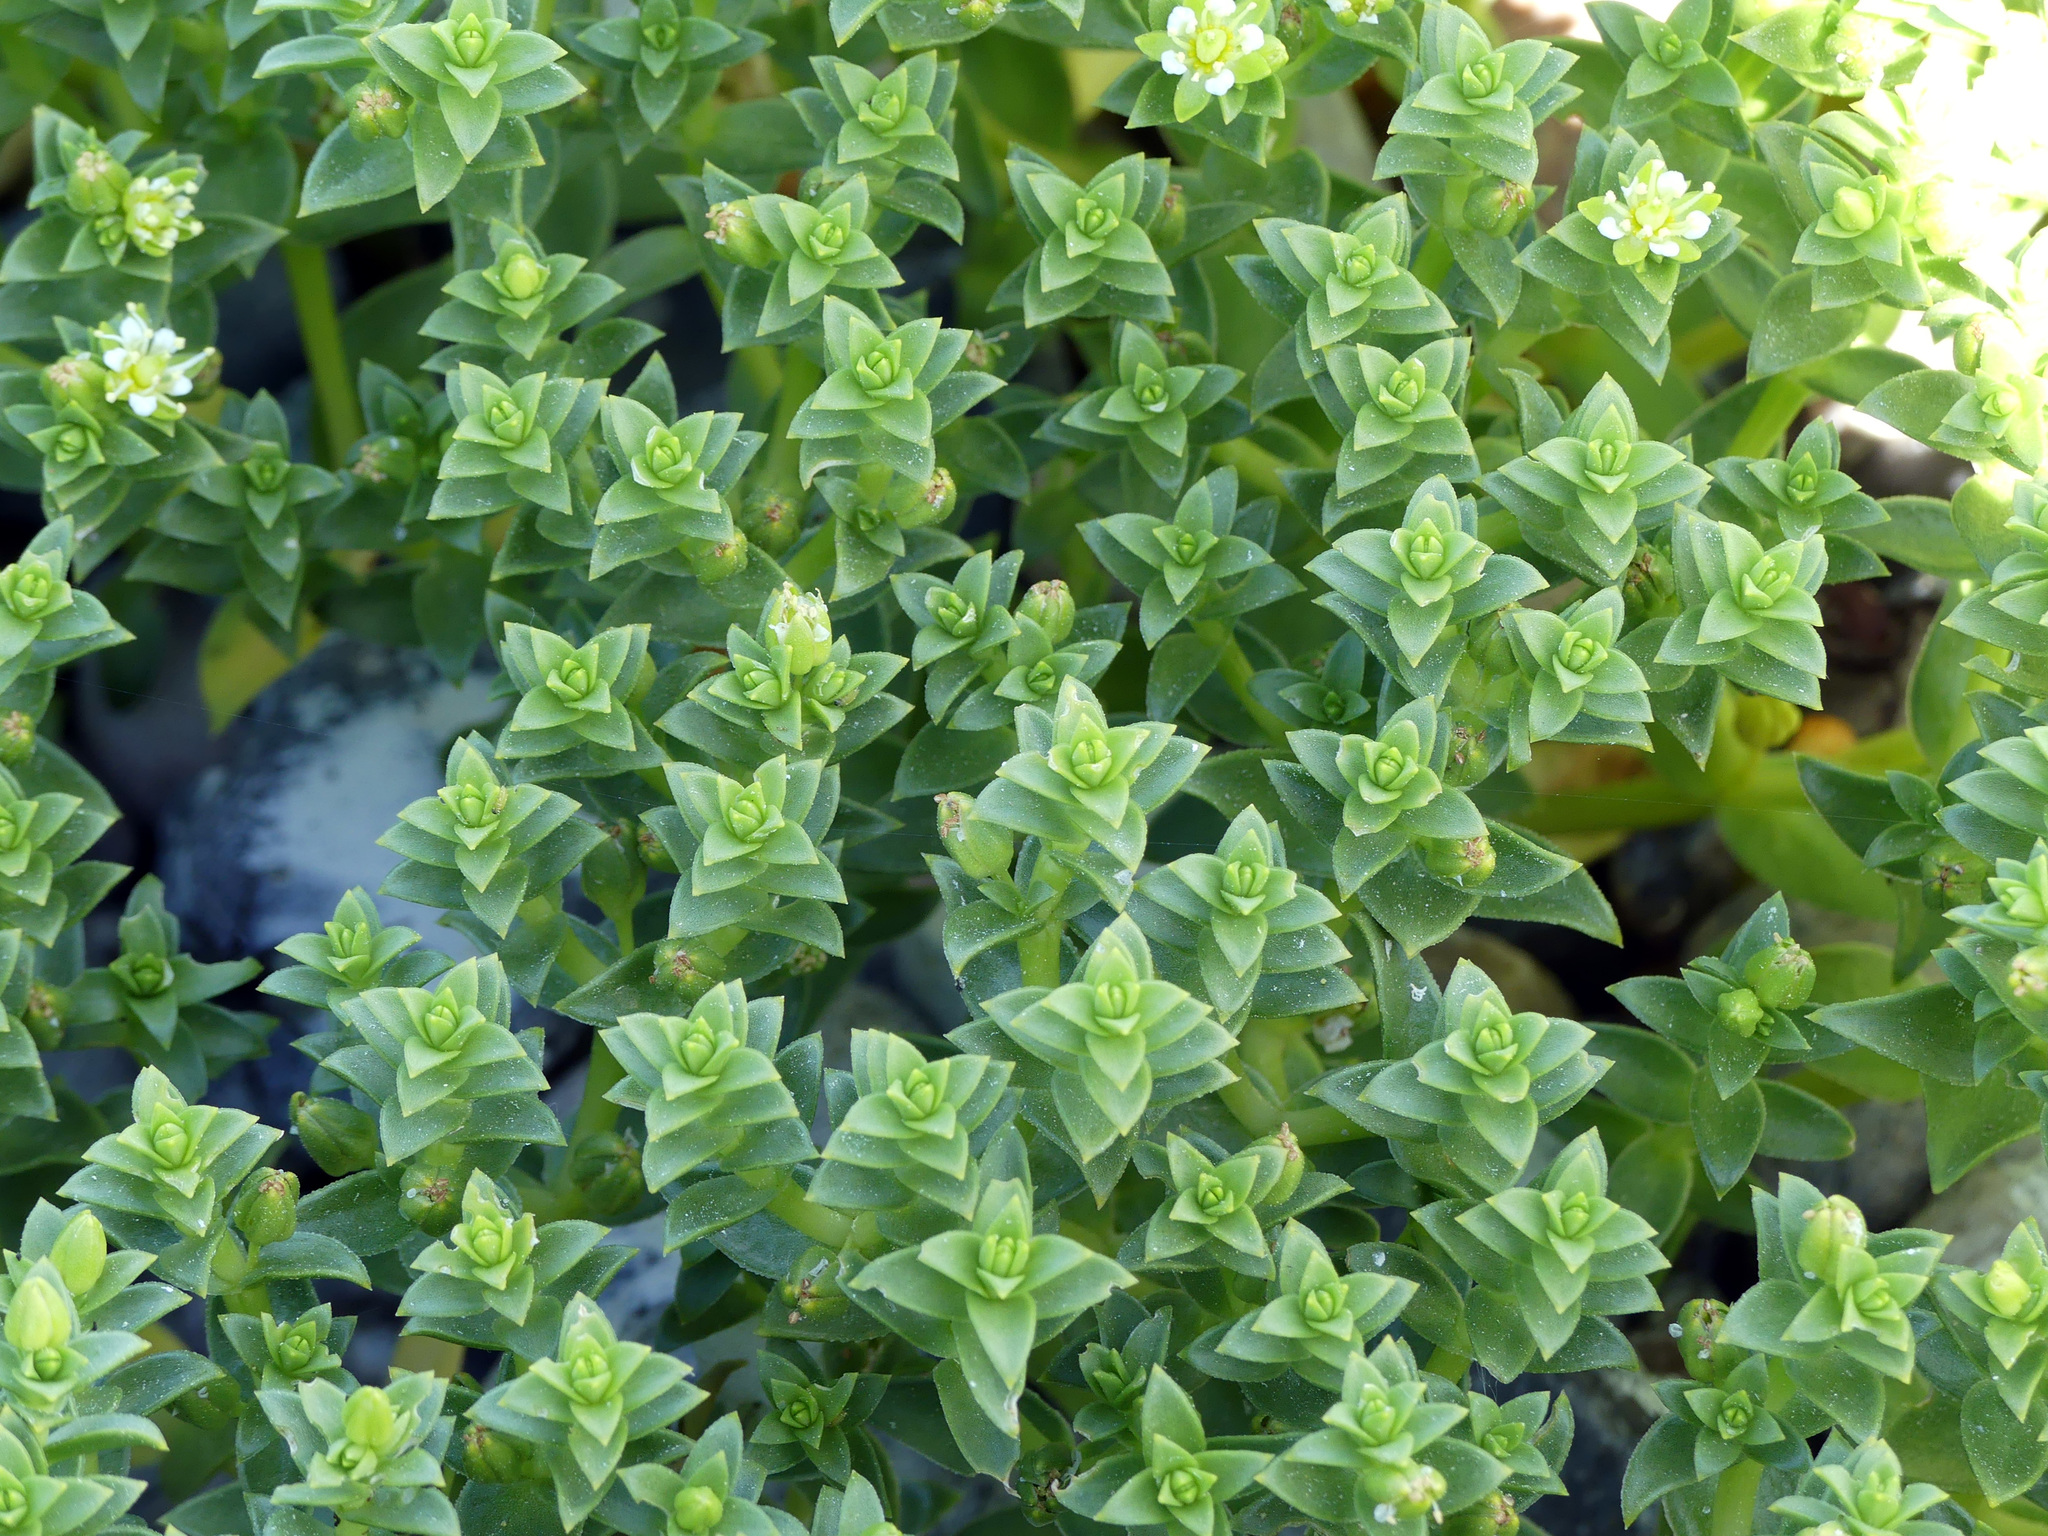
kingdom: Plantae
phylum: Tracheophyta
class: Magnoliopsida
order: Caryophyllales
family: Caryophyllaceae
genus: Honckenya
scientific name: Honckenya peploides
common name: Sea sandwort
